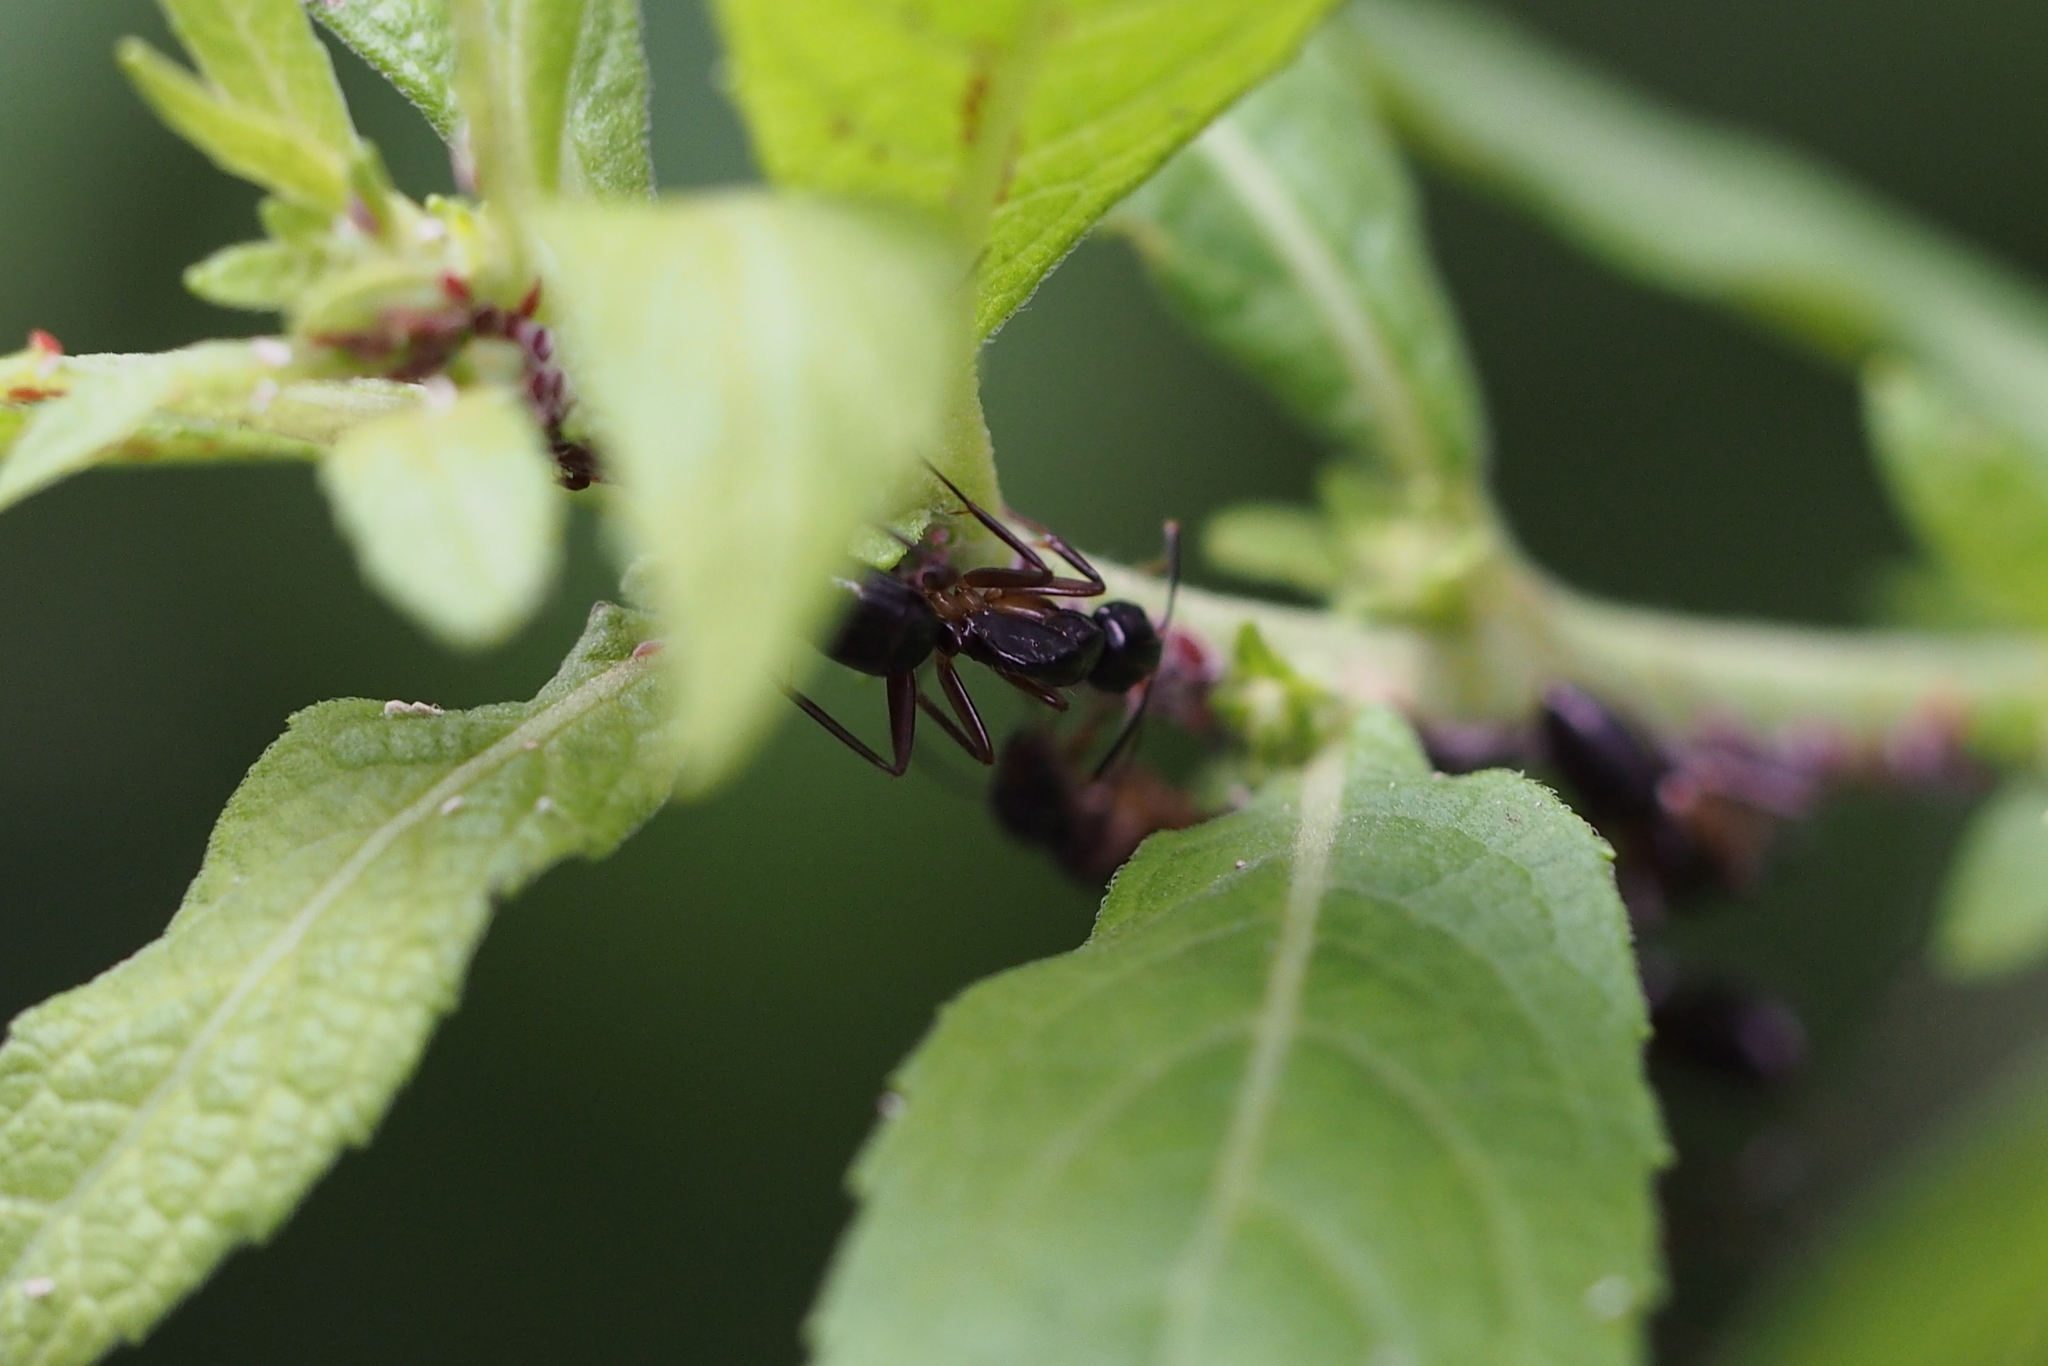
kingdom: Animalia
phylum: Arthropoda
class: Insecta
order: Hymenoptera
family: Formicidae
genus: Camponotus
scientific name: Camponotus kiusiuensis
